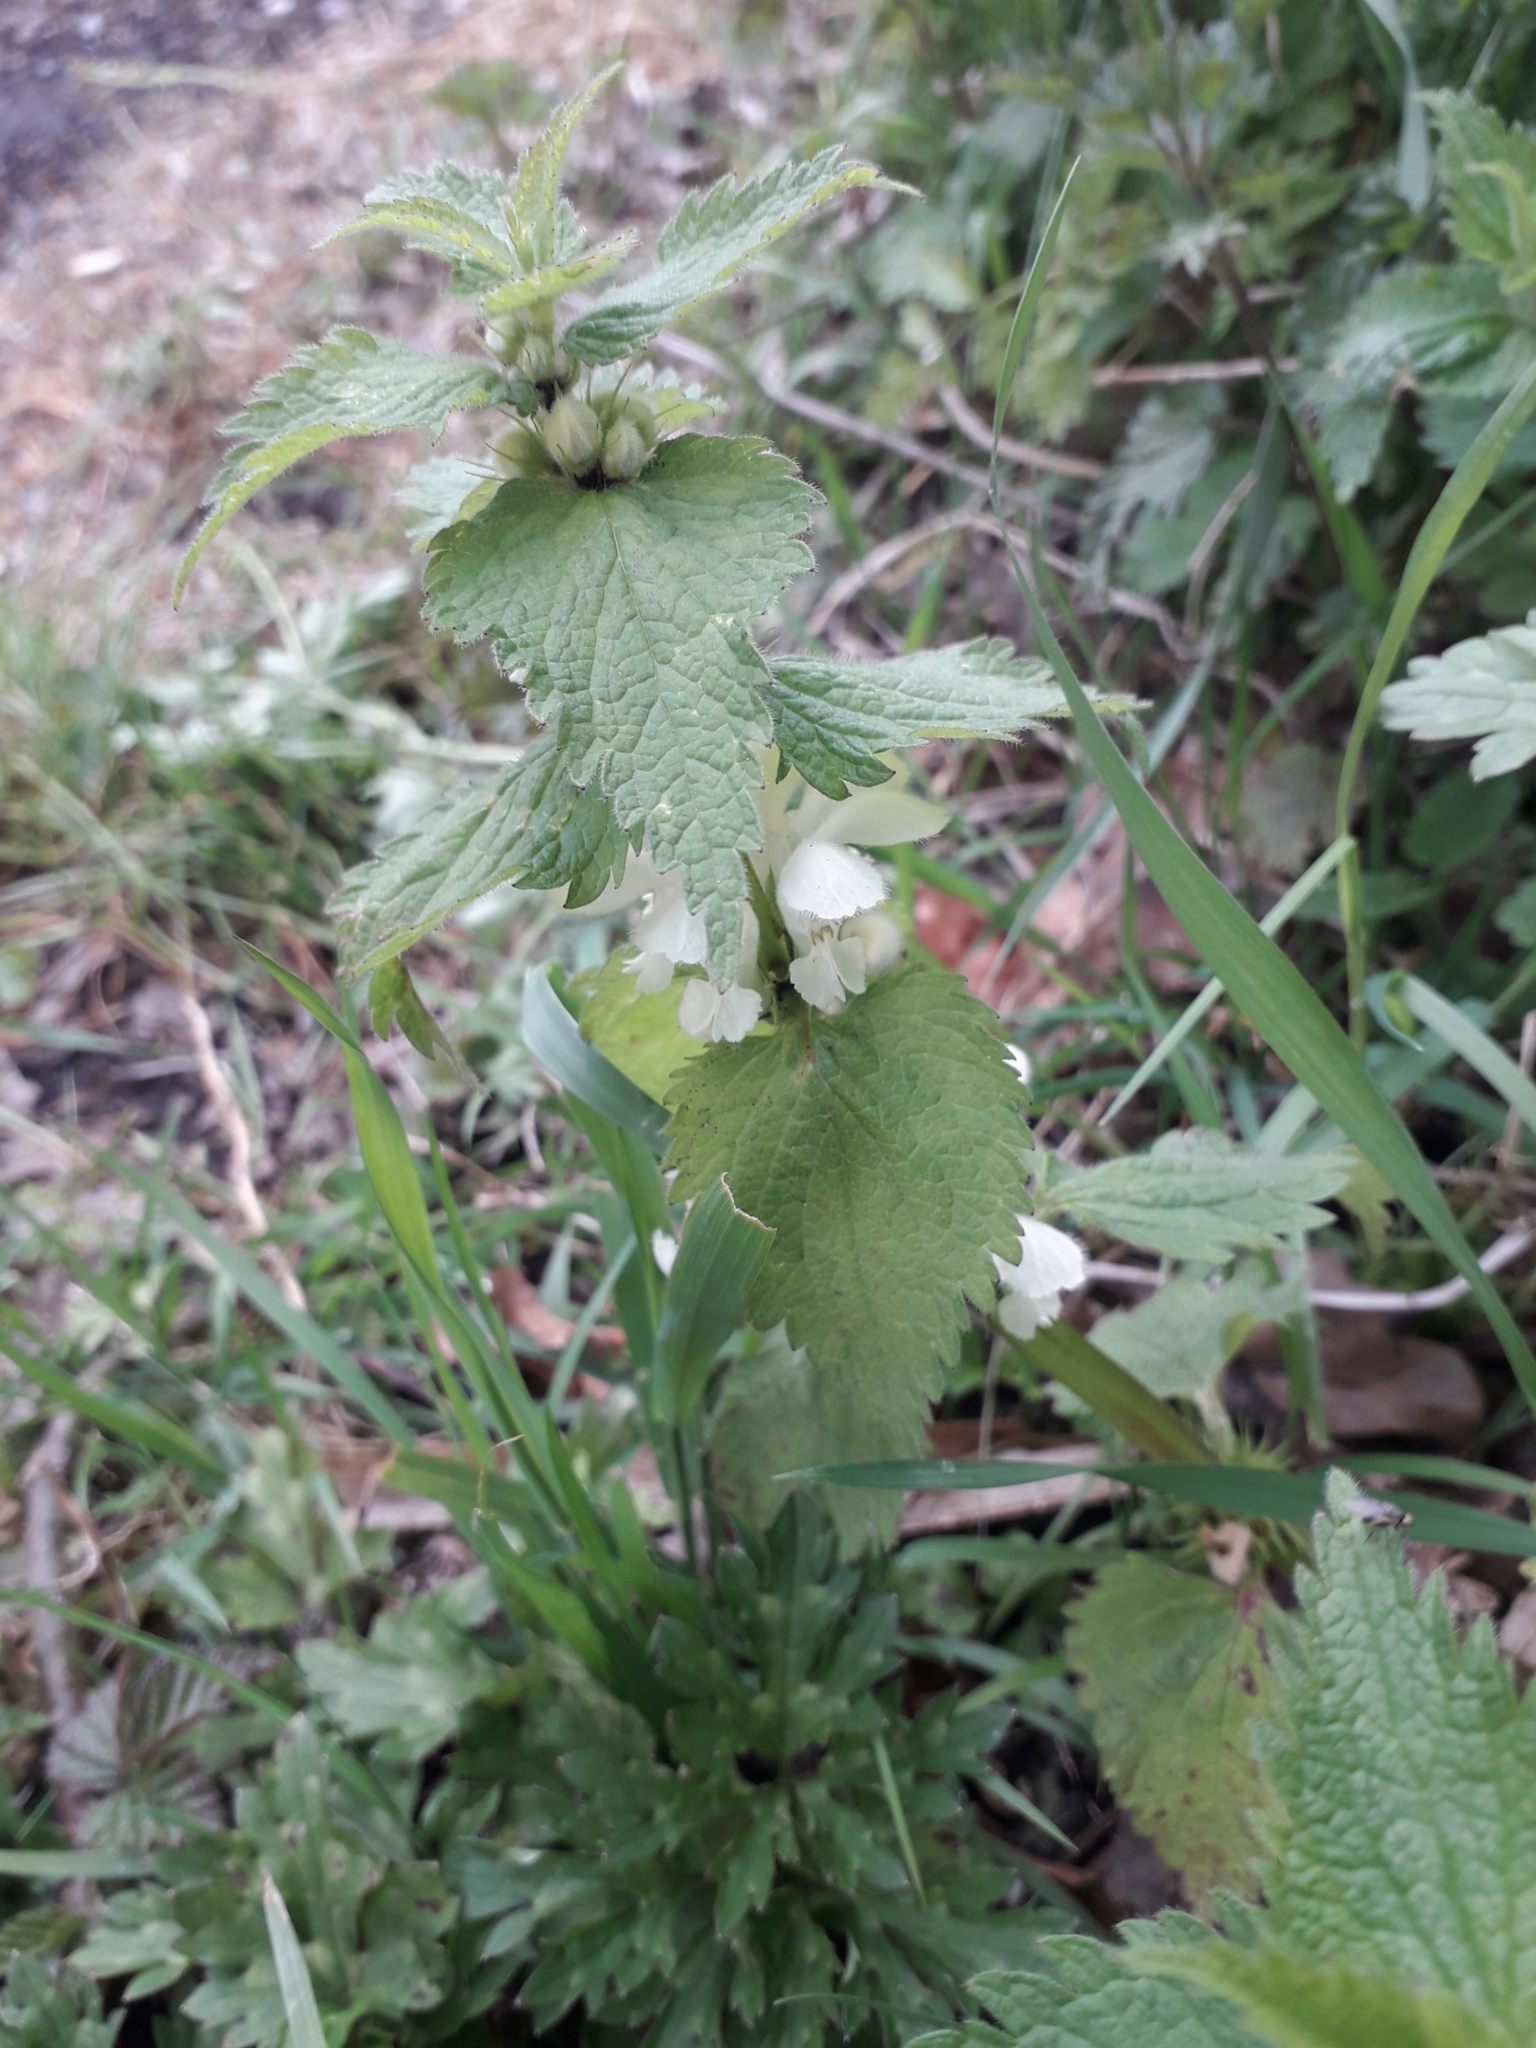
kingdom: Plantae
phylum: Tracheophyta
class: Magnoliopsida
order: Lamiales
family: Lamiaceae
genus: Lamium
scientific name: Lamium album
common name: White dead-nettle
